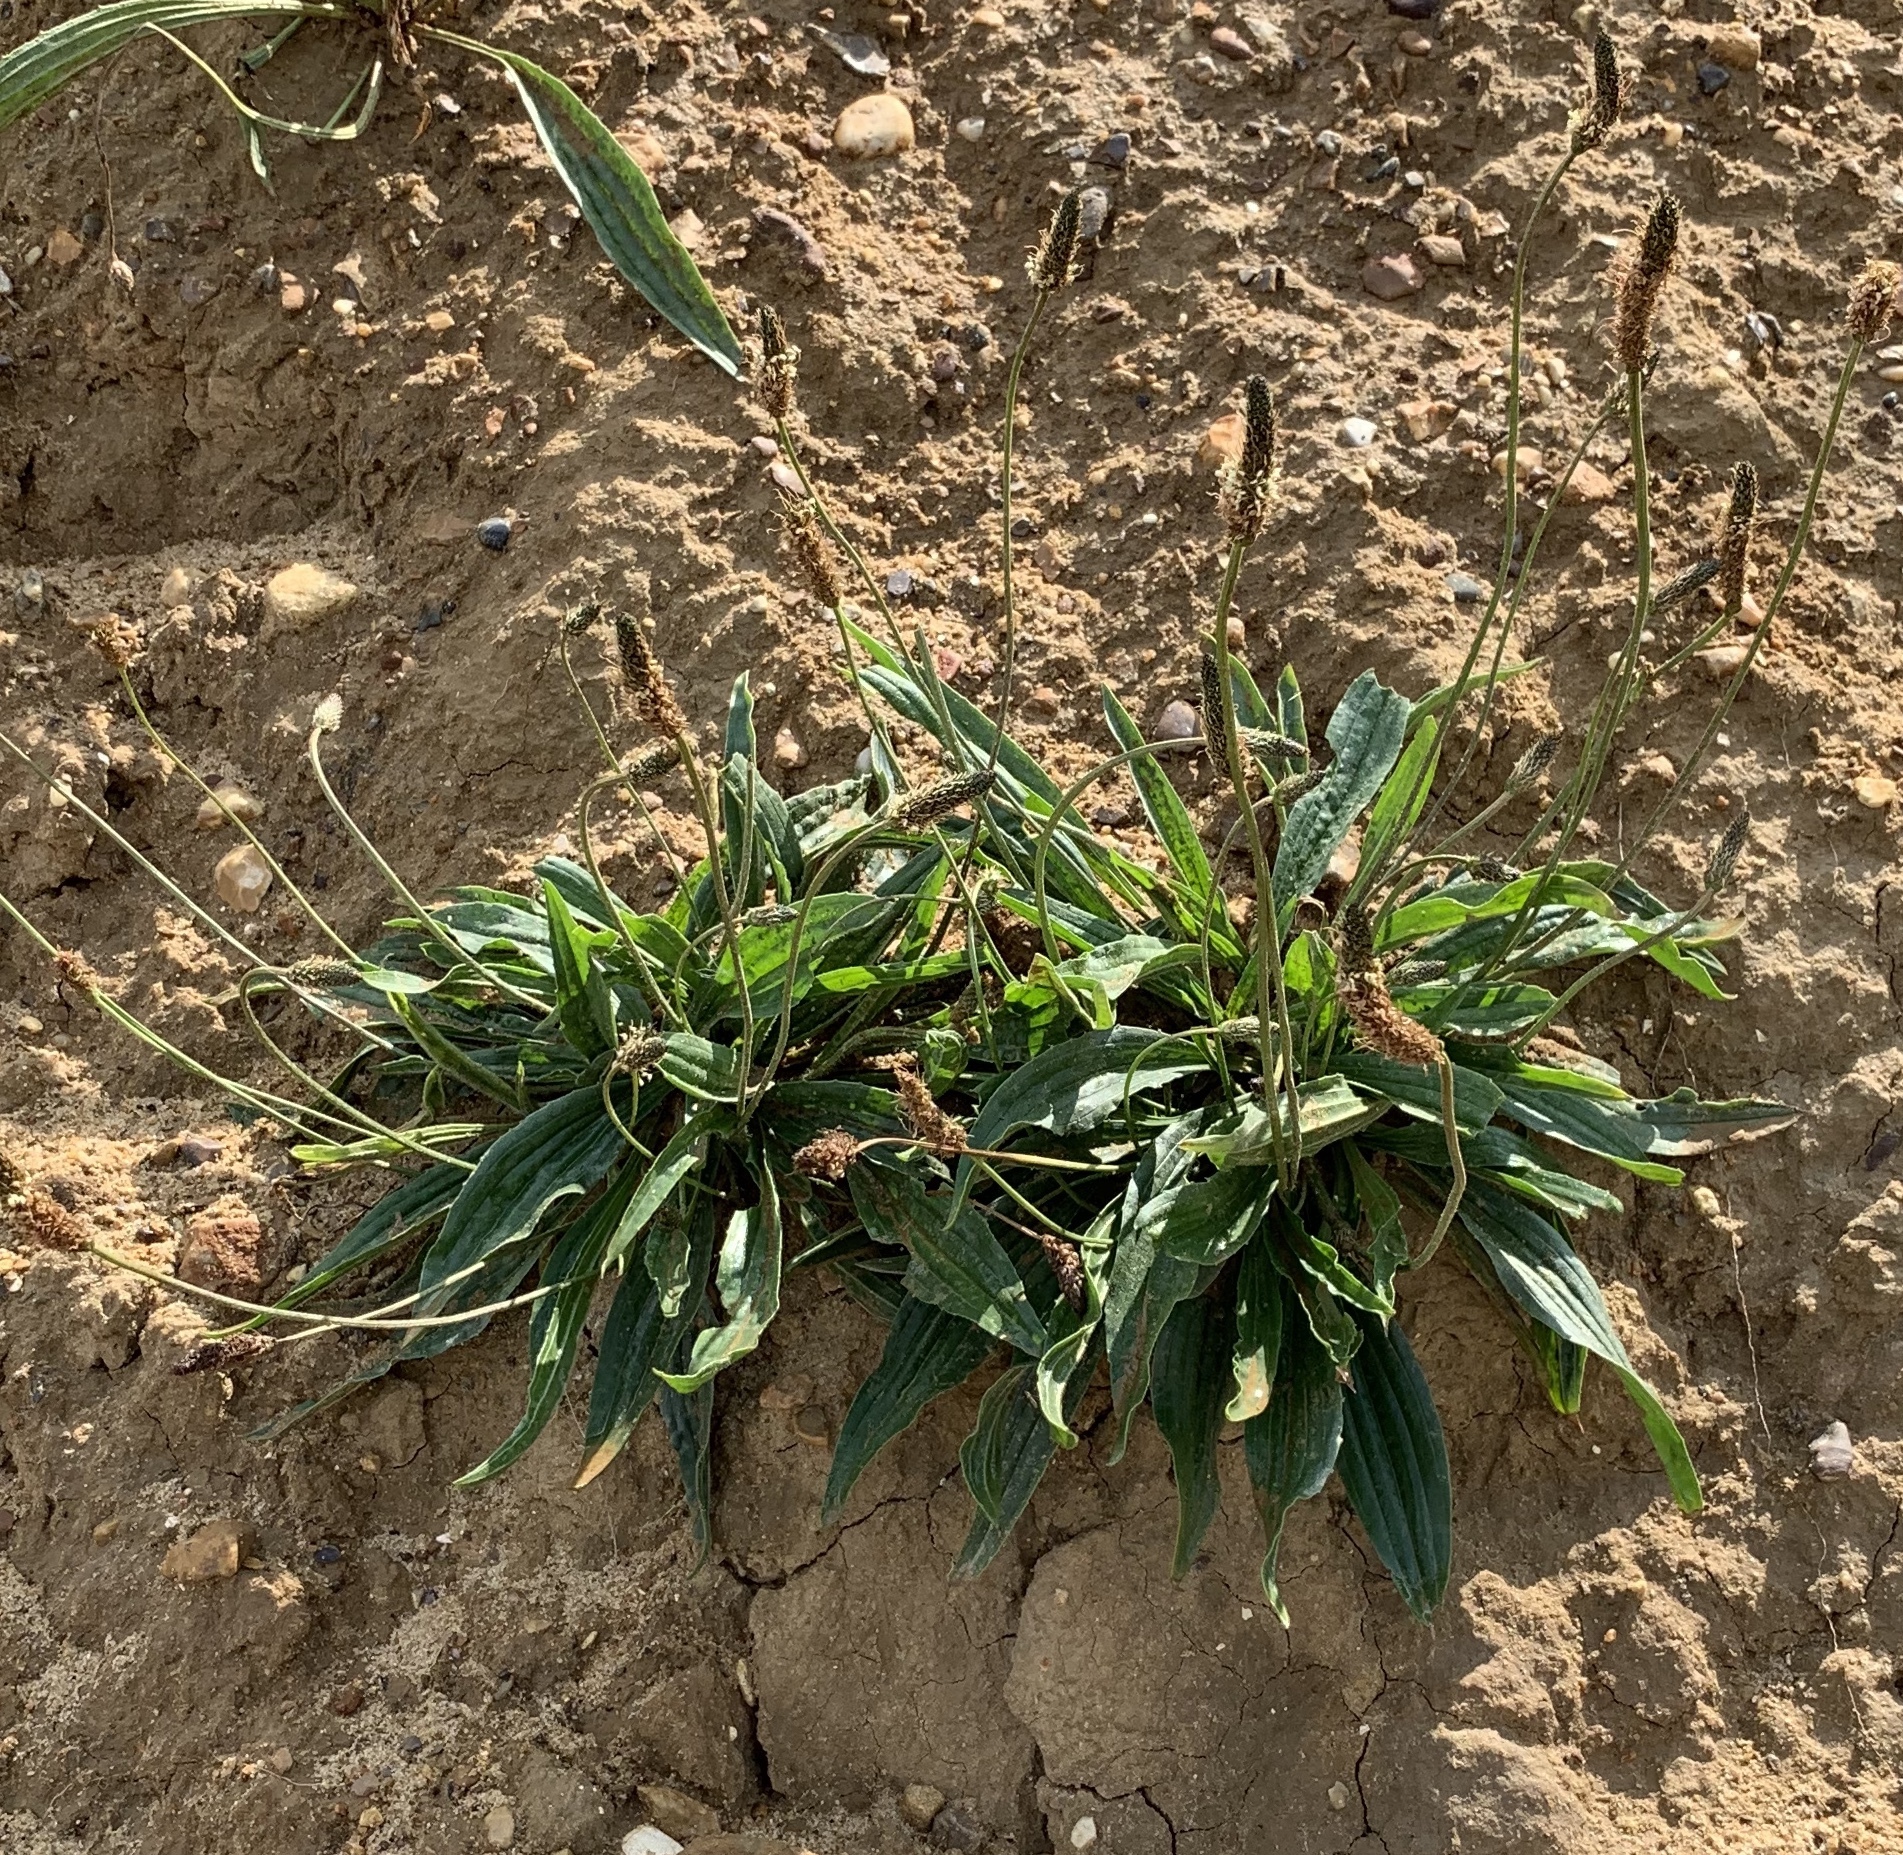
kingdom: Plantae
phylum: Tracheophyta
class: Magnoliopsida
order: Lamiales
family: Plantaginaceae
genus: Plantago
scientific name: Plantago lanceolata
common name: Ribwort plantain
